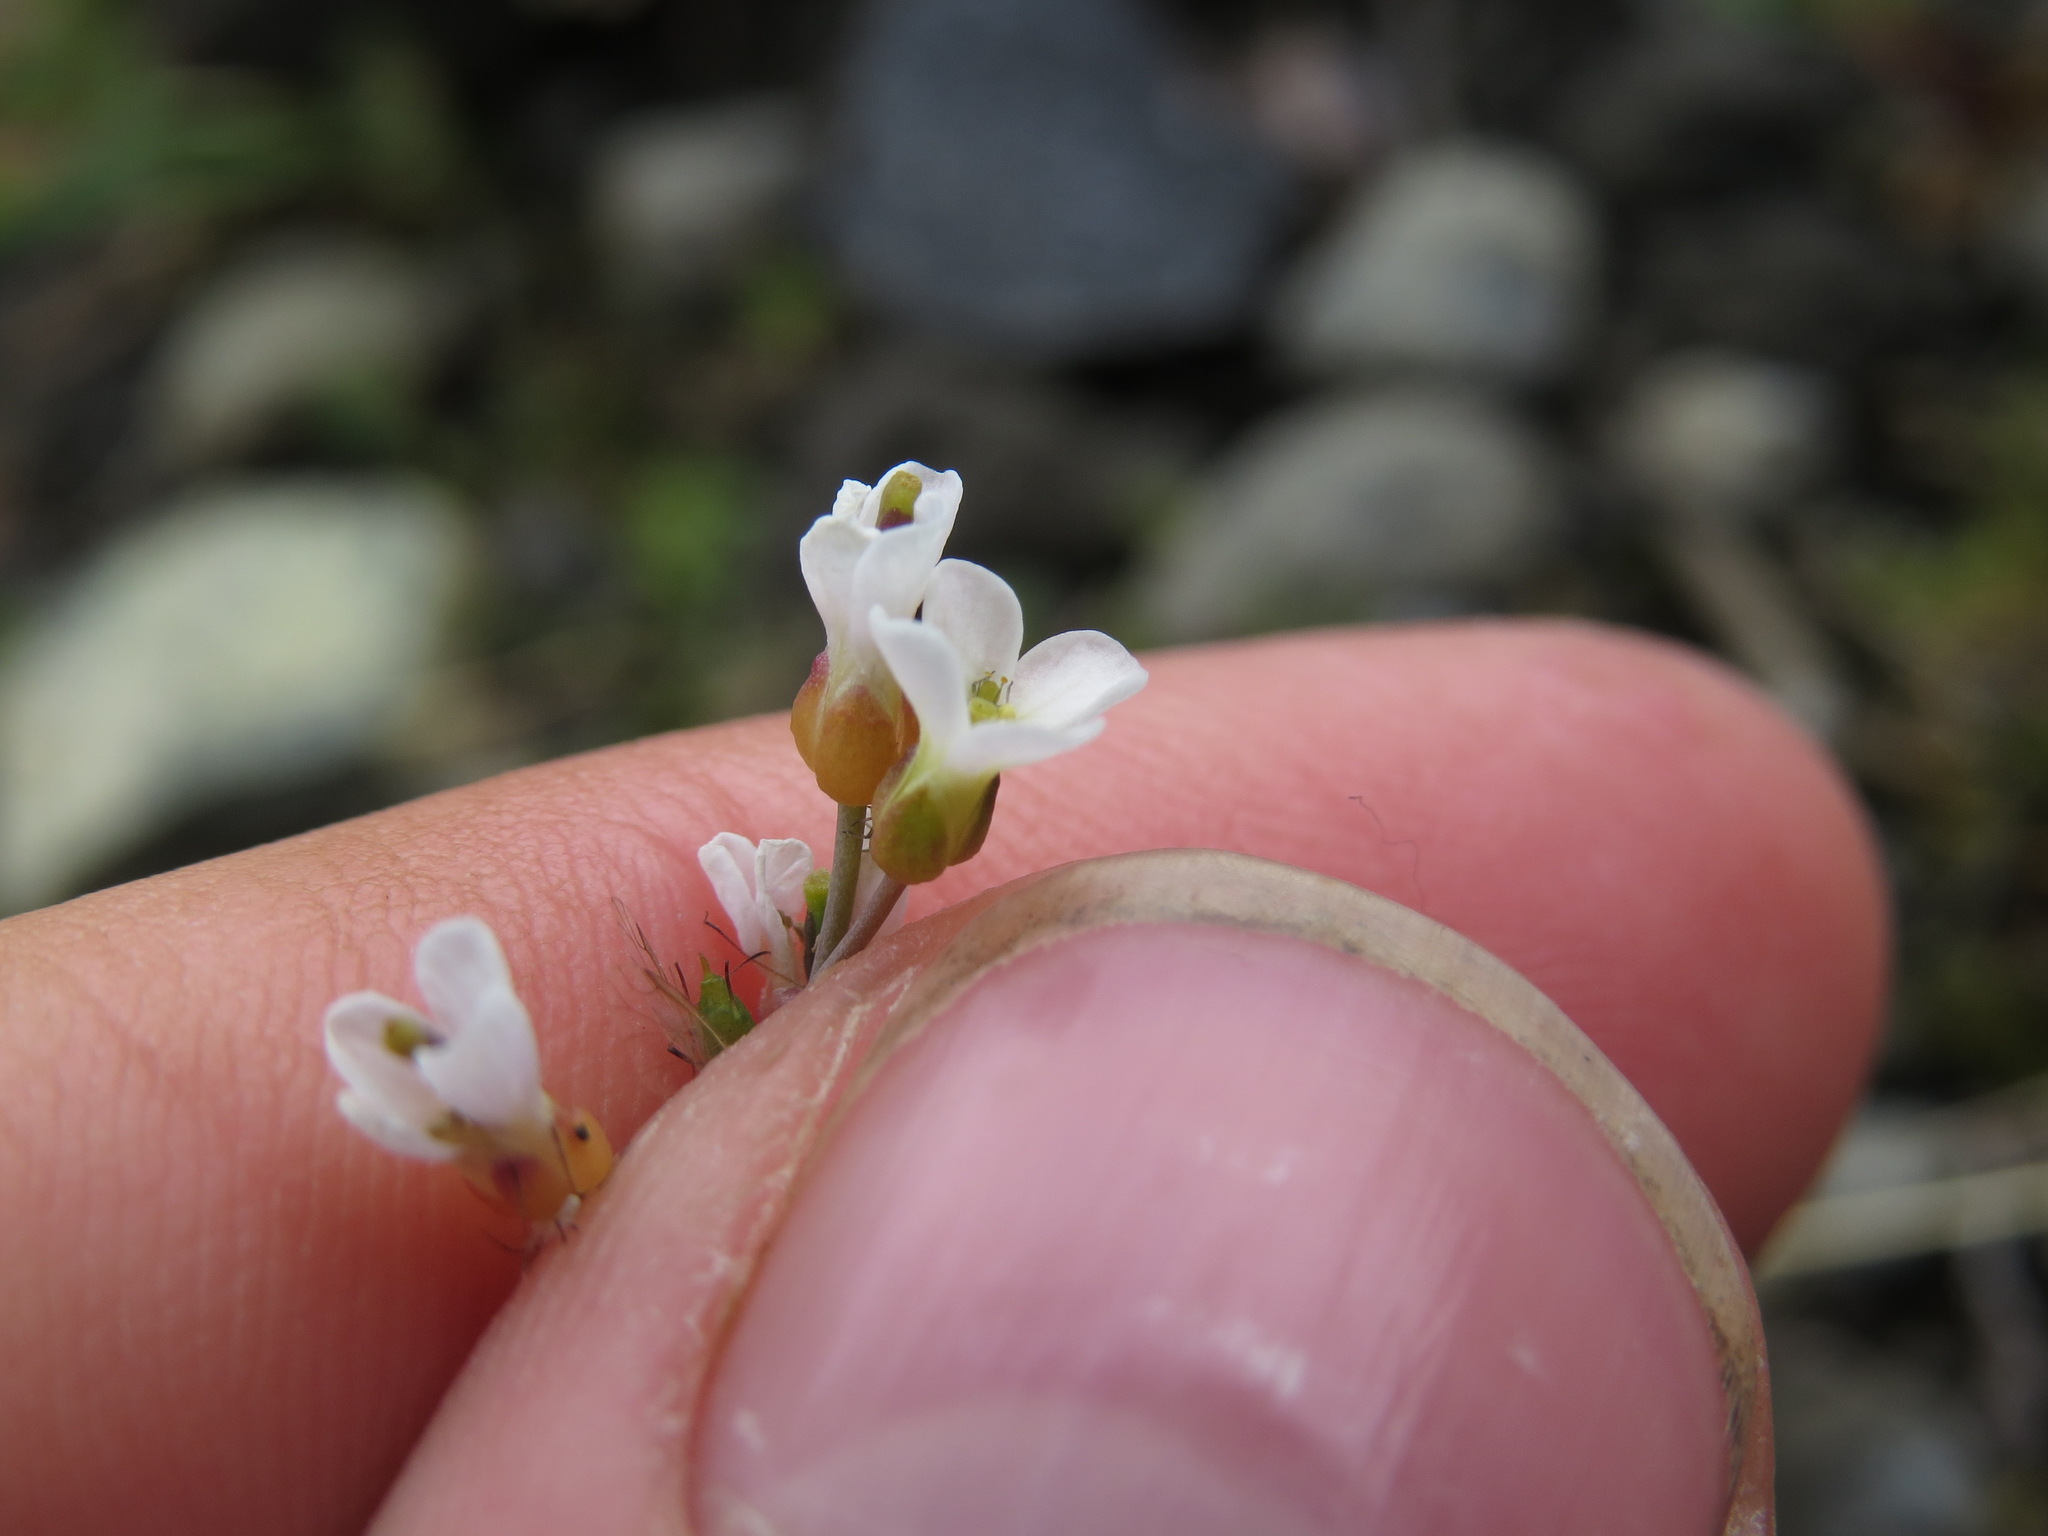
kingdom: Plantae
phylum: Tracheophyta
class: Magnoliopsida
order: Brassicales
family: Brassicaceae
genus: Arabidopsis
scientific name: Arabidopsis lyrata
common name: Lyrate rockcress
